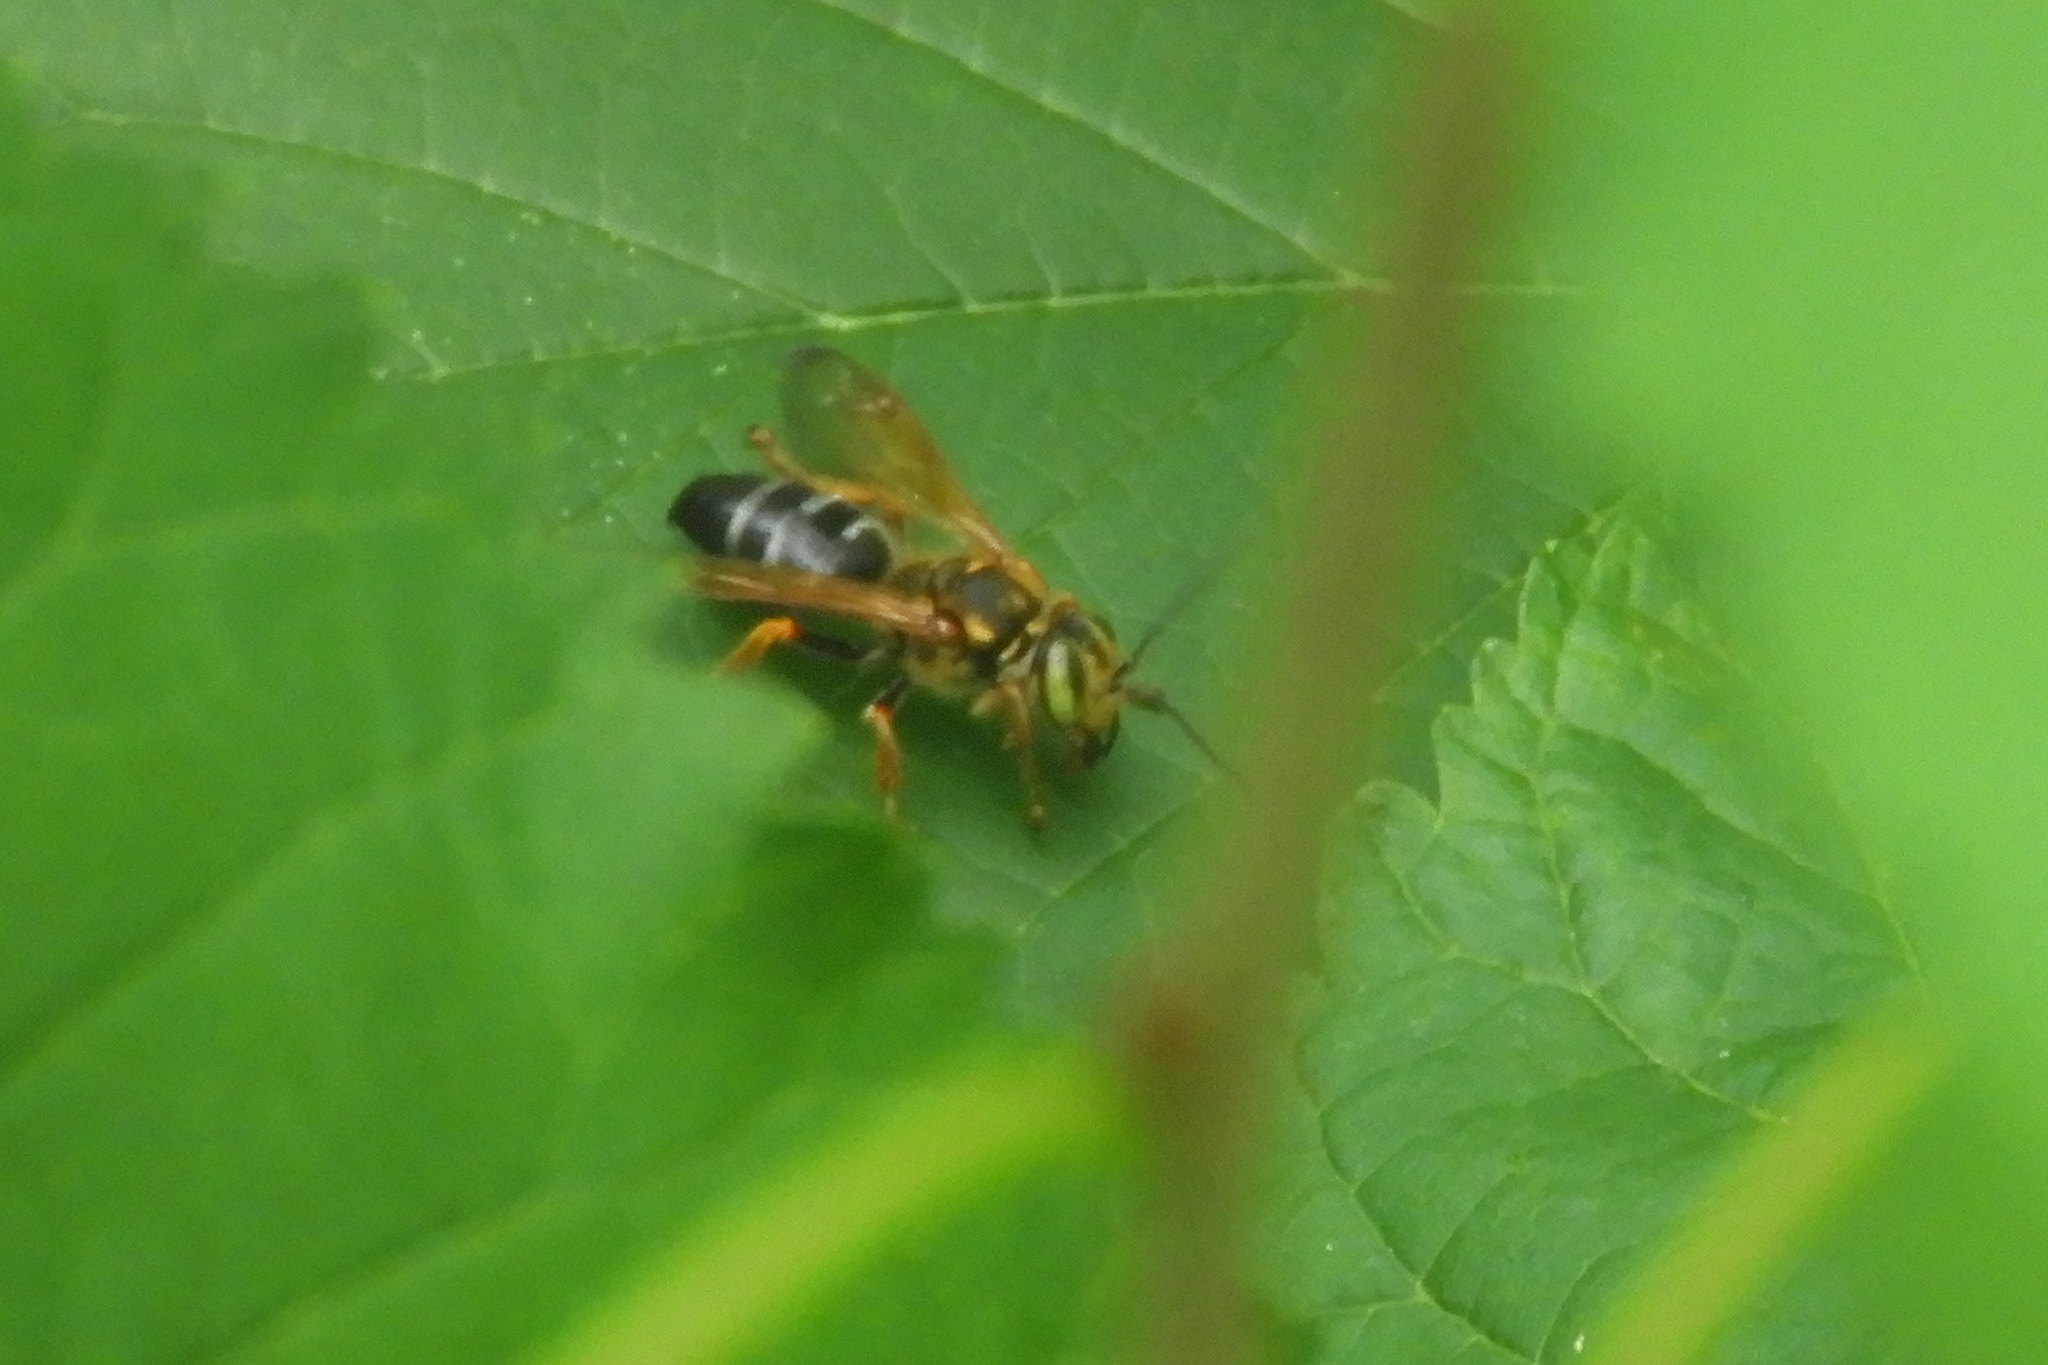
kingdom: Animalia
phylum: Arthropoda
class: Insecta
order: Hymenoptera
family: Crabronidae
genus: Tachytes
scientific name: Tachytes
